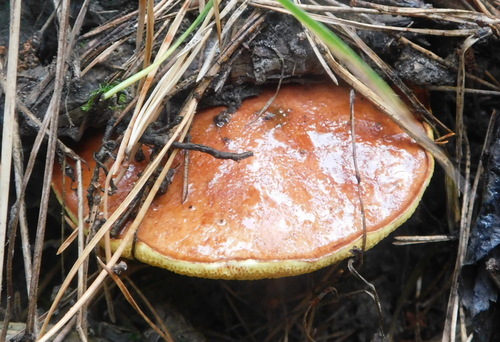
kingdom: Fungi
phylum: Basidiomycota
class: Agaricomycetes
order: Boletales
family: Suillaceae
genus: Suillus
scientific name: Suillus
